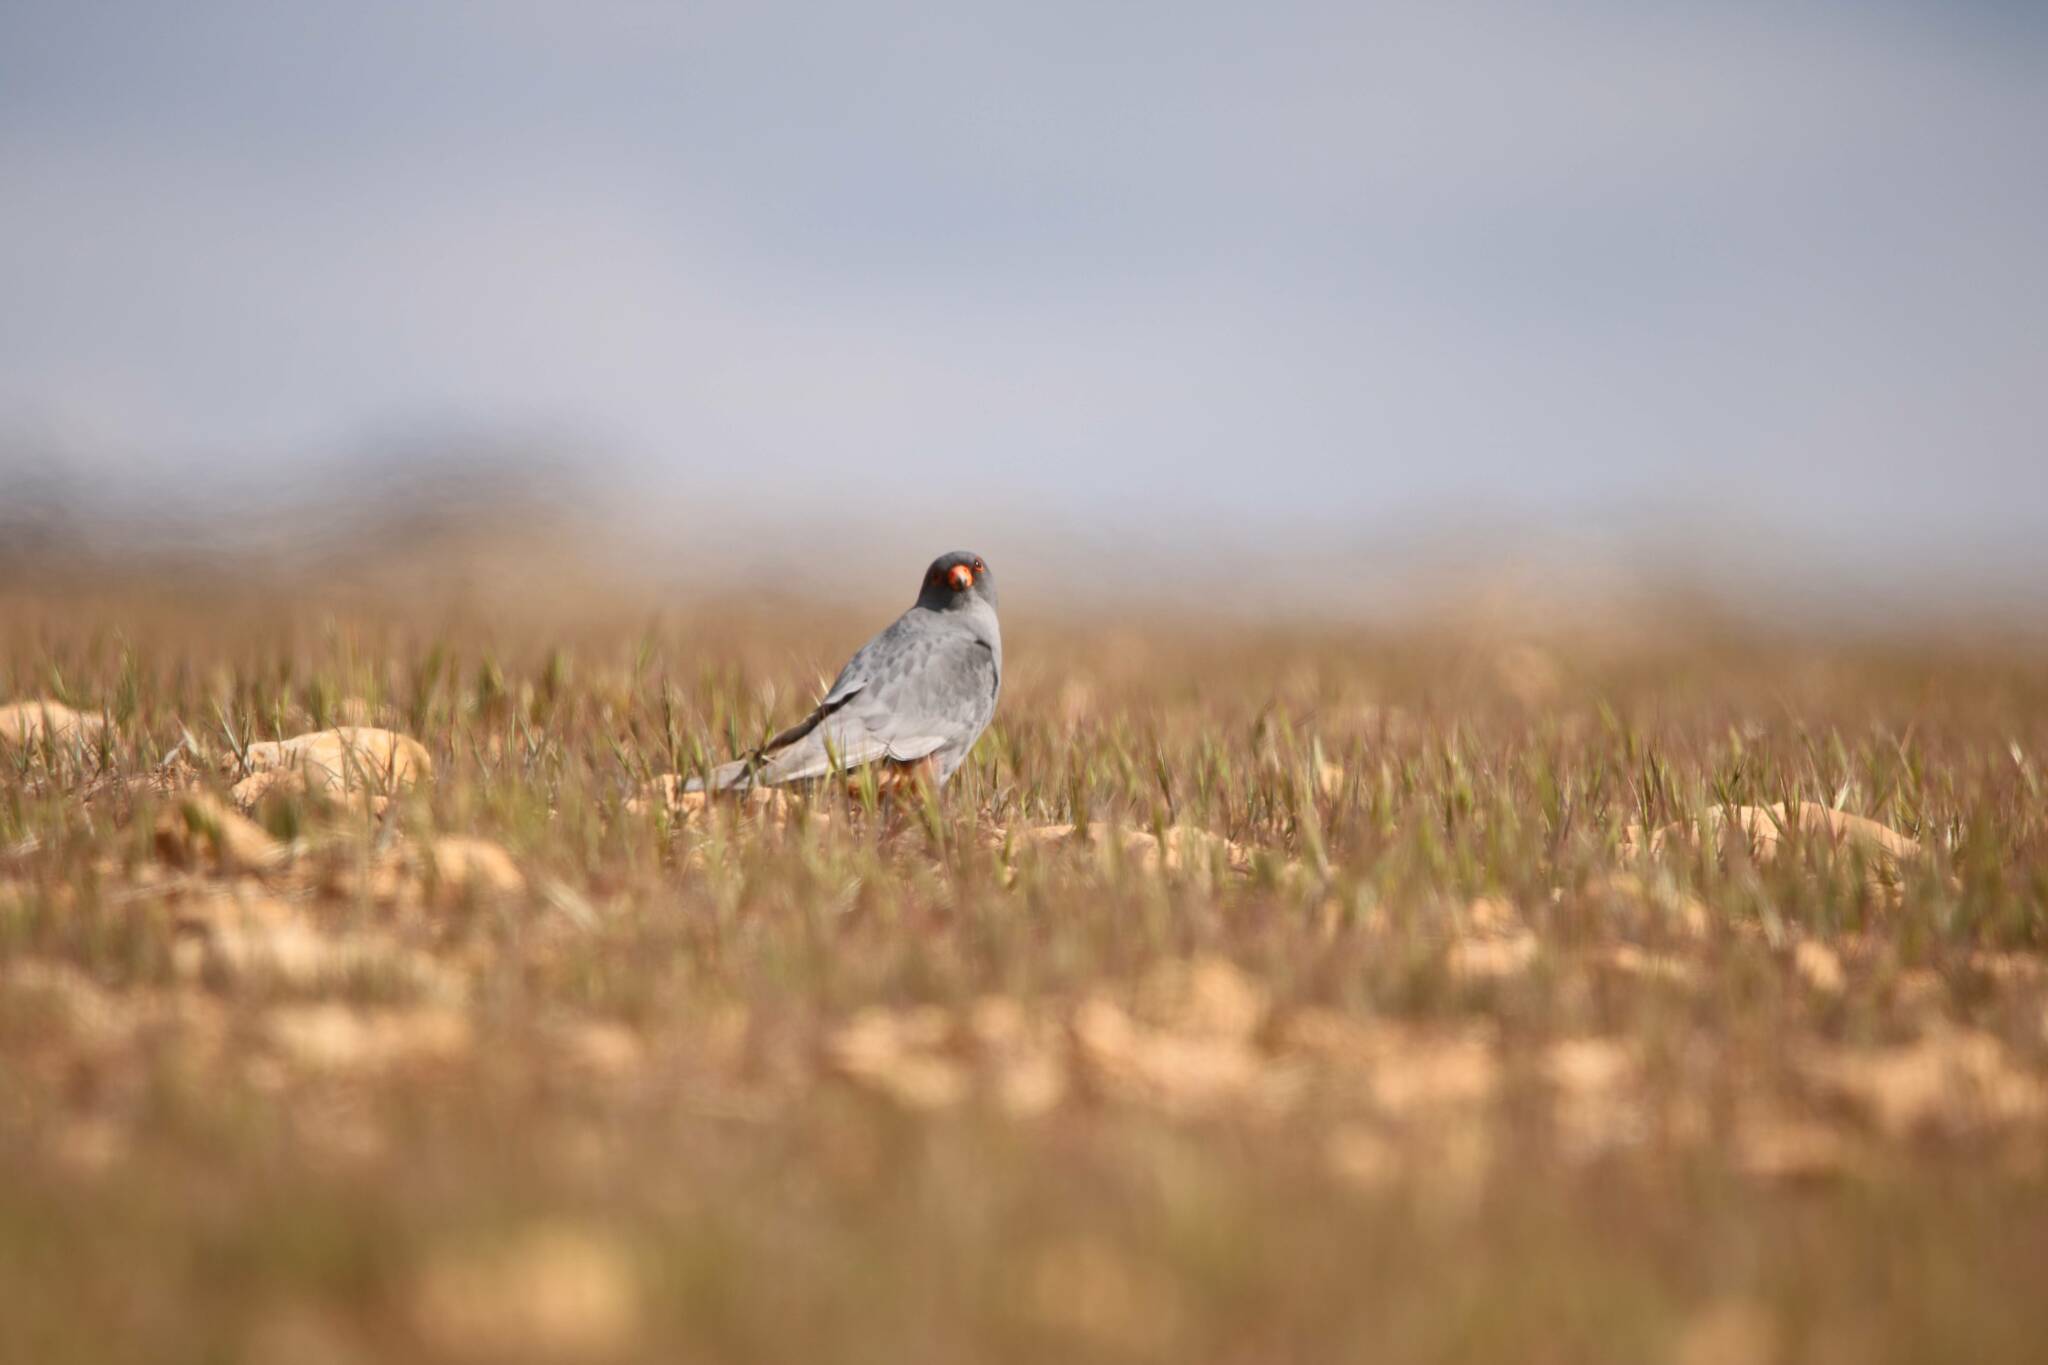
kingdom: Animalia
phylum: Chordata
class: Aves
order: Falconiformes
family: Falconidae
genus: Falco
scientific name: Falco vespertinus
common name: Red-footed falcon
